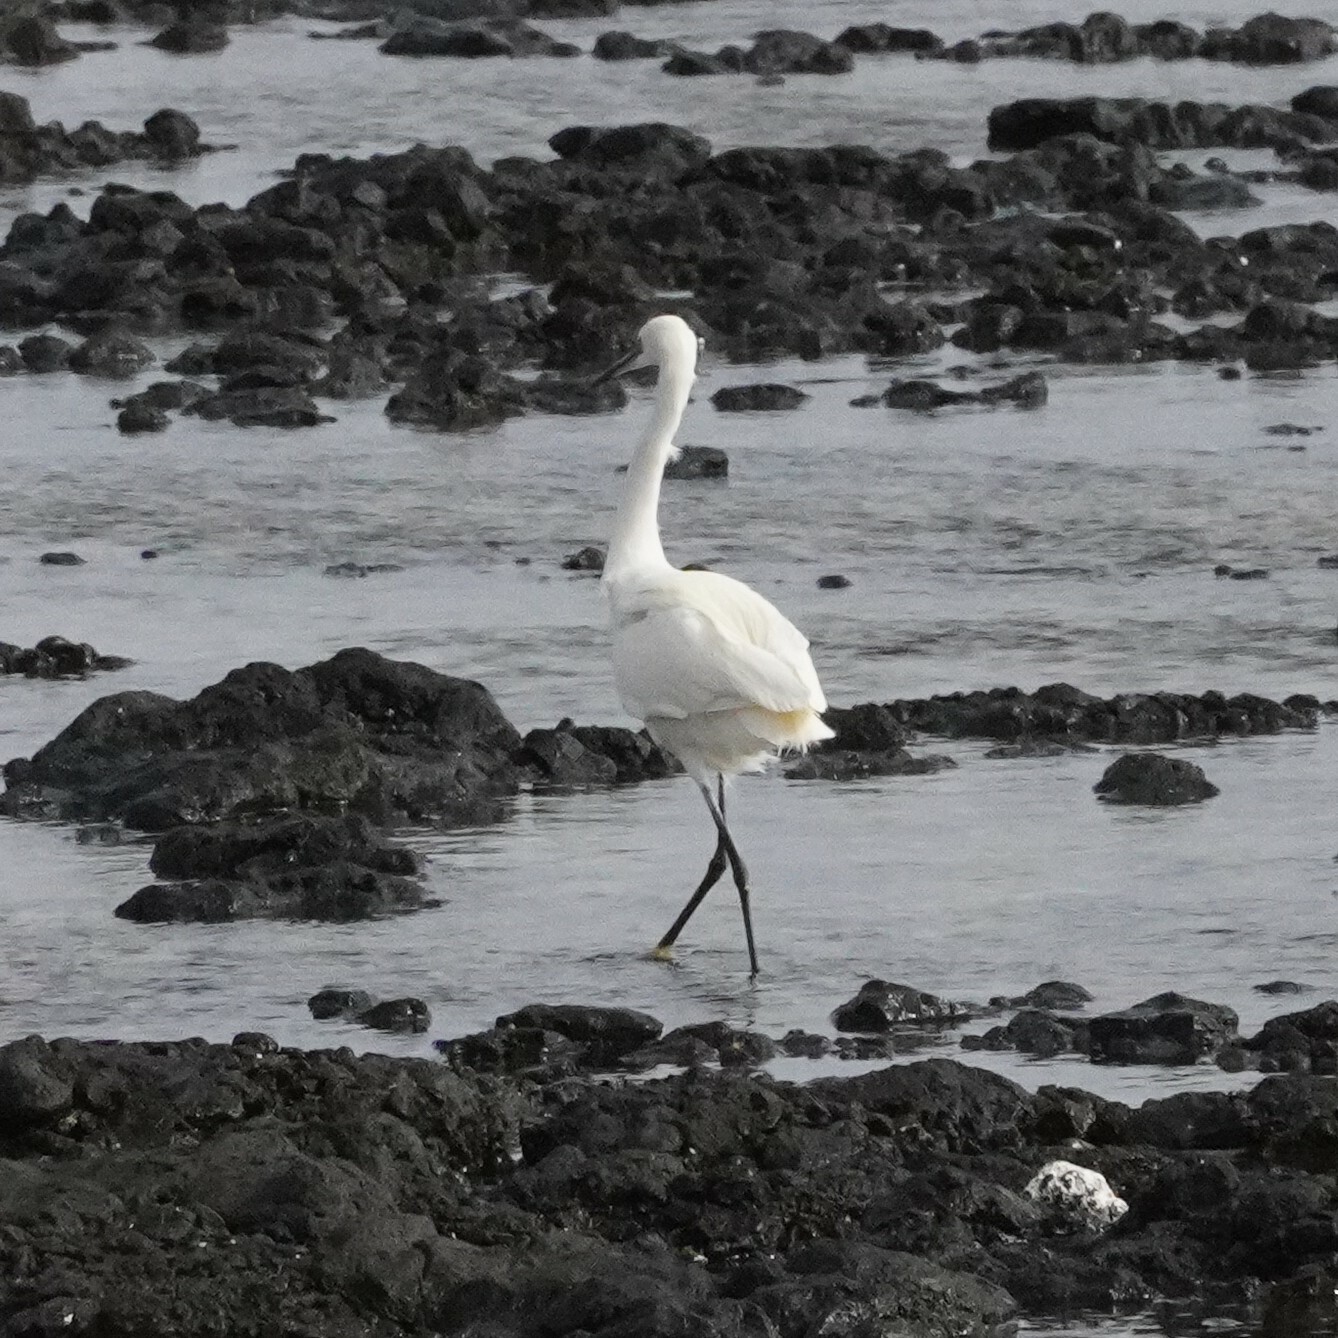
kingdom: Animalia
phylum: Chordata
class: Aves
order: Pelecaniformes
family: Ardeidae
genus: Egretta
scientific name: Egretta garzetta
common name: Little egret
